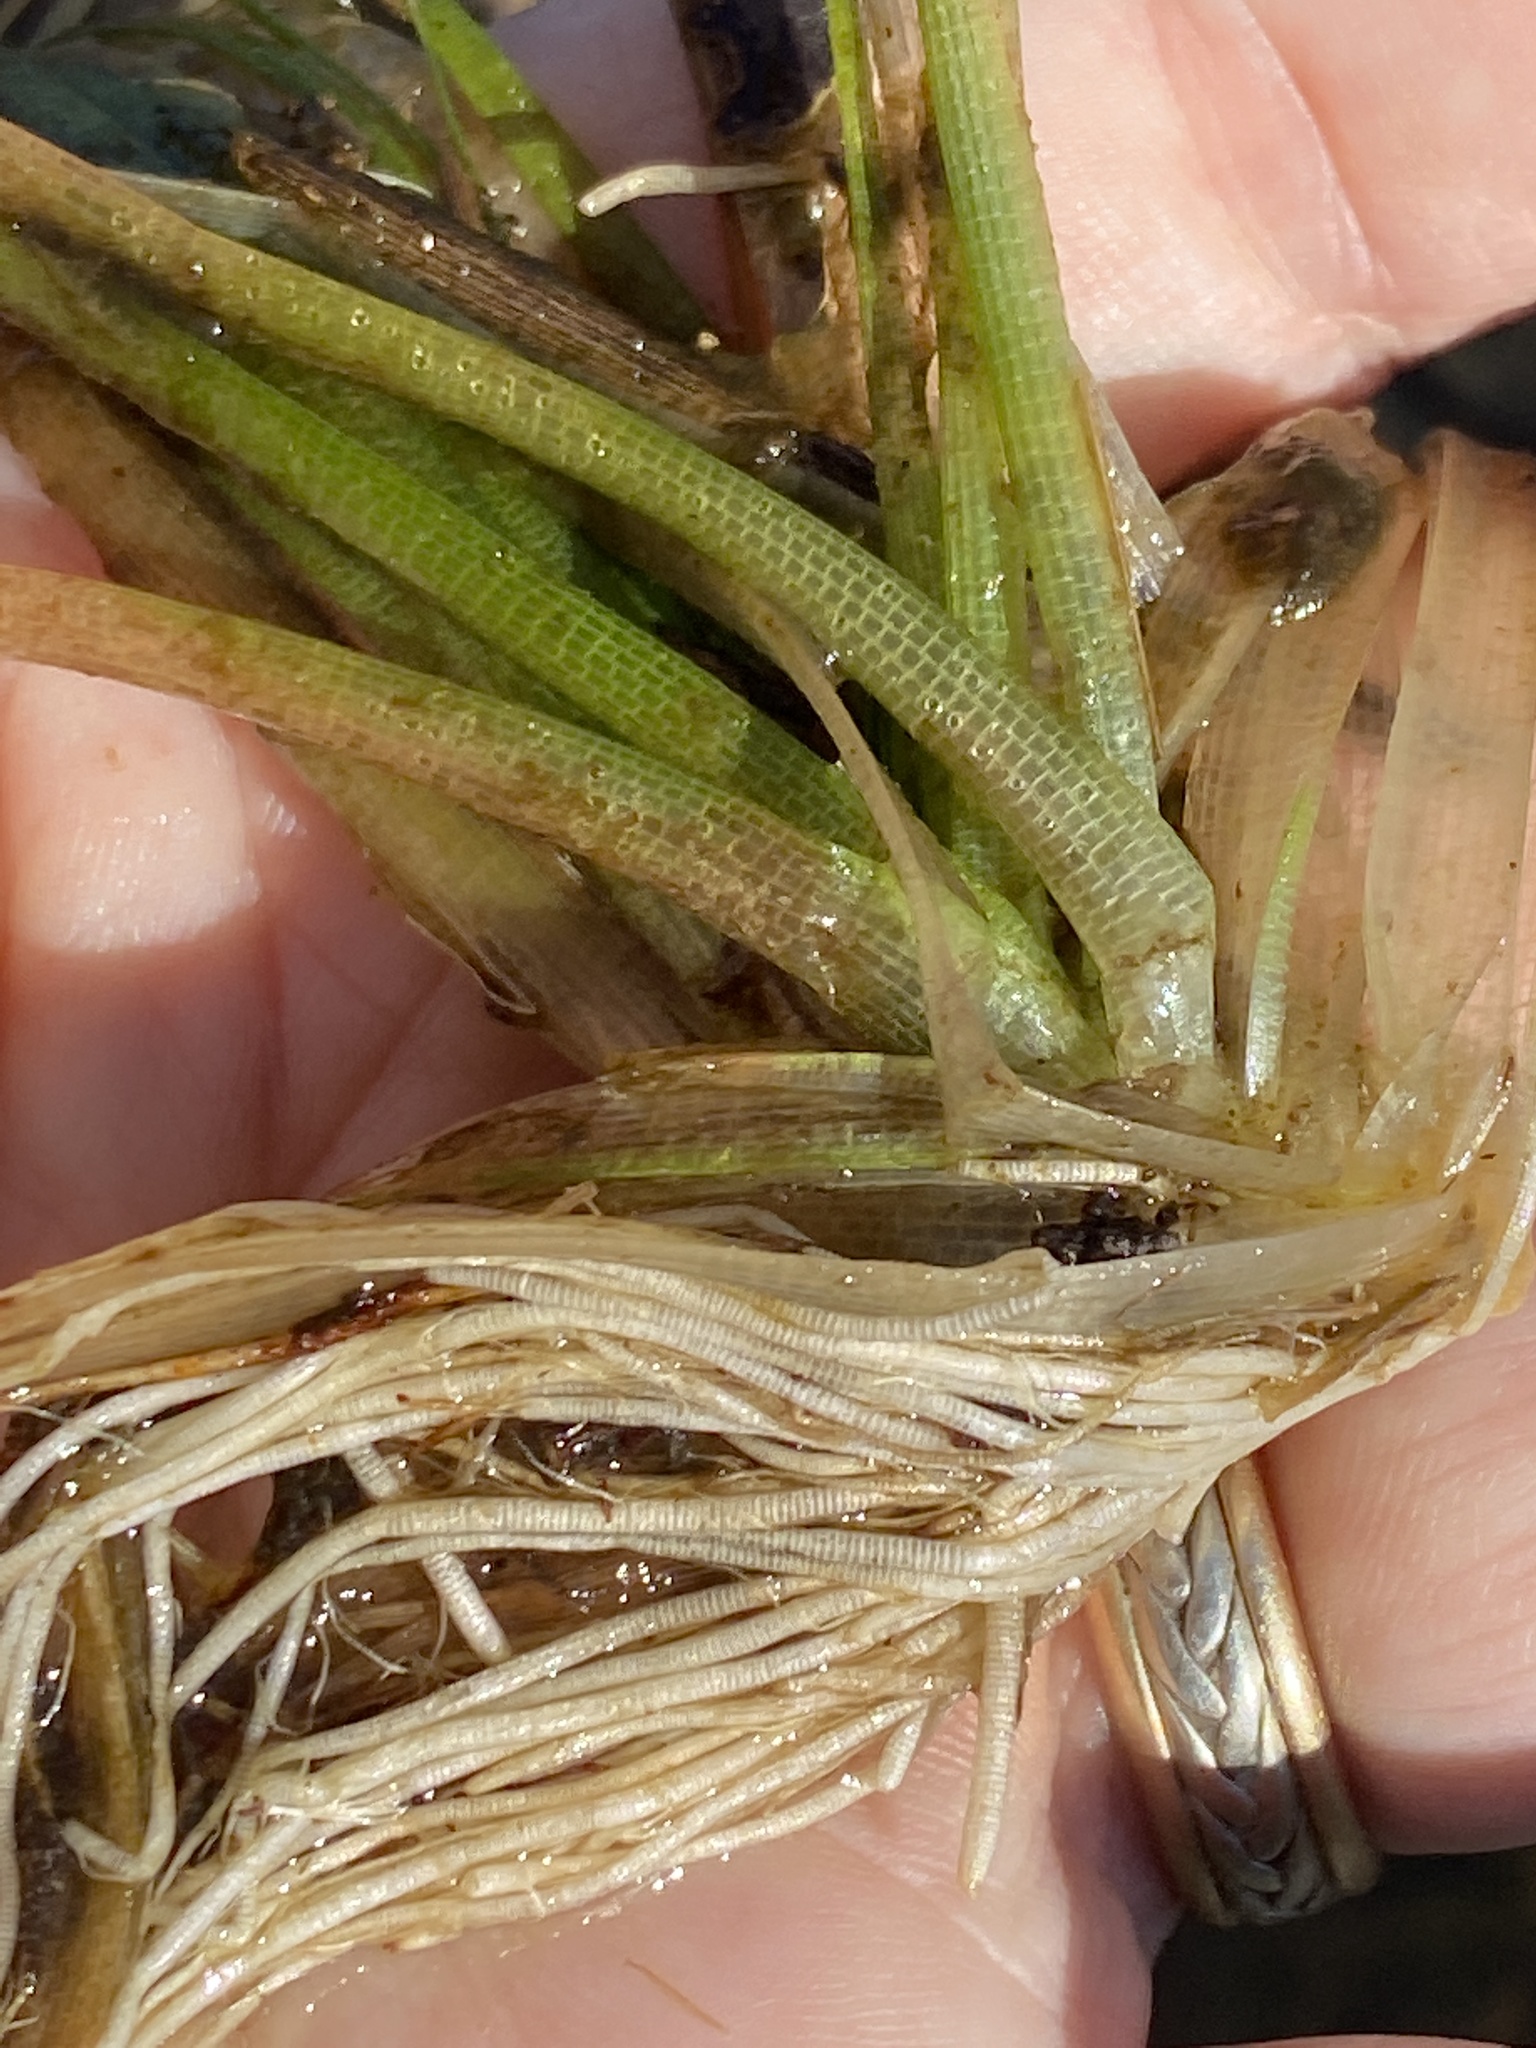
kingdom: Plantae
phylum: Tracheophyta
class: Liliopsida
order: Poales
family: Eriocaulaceae
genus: Eriocaulon
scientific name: Eriocaulon compressum
